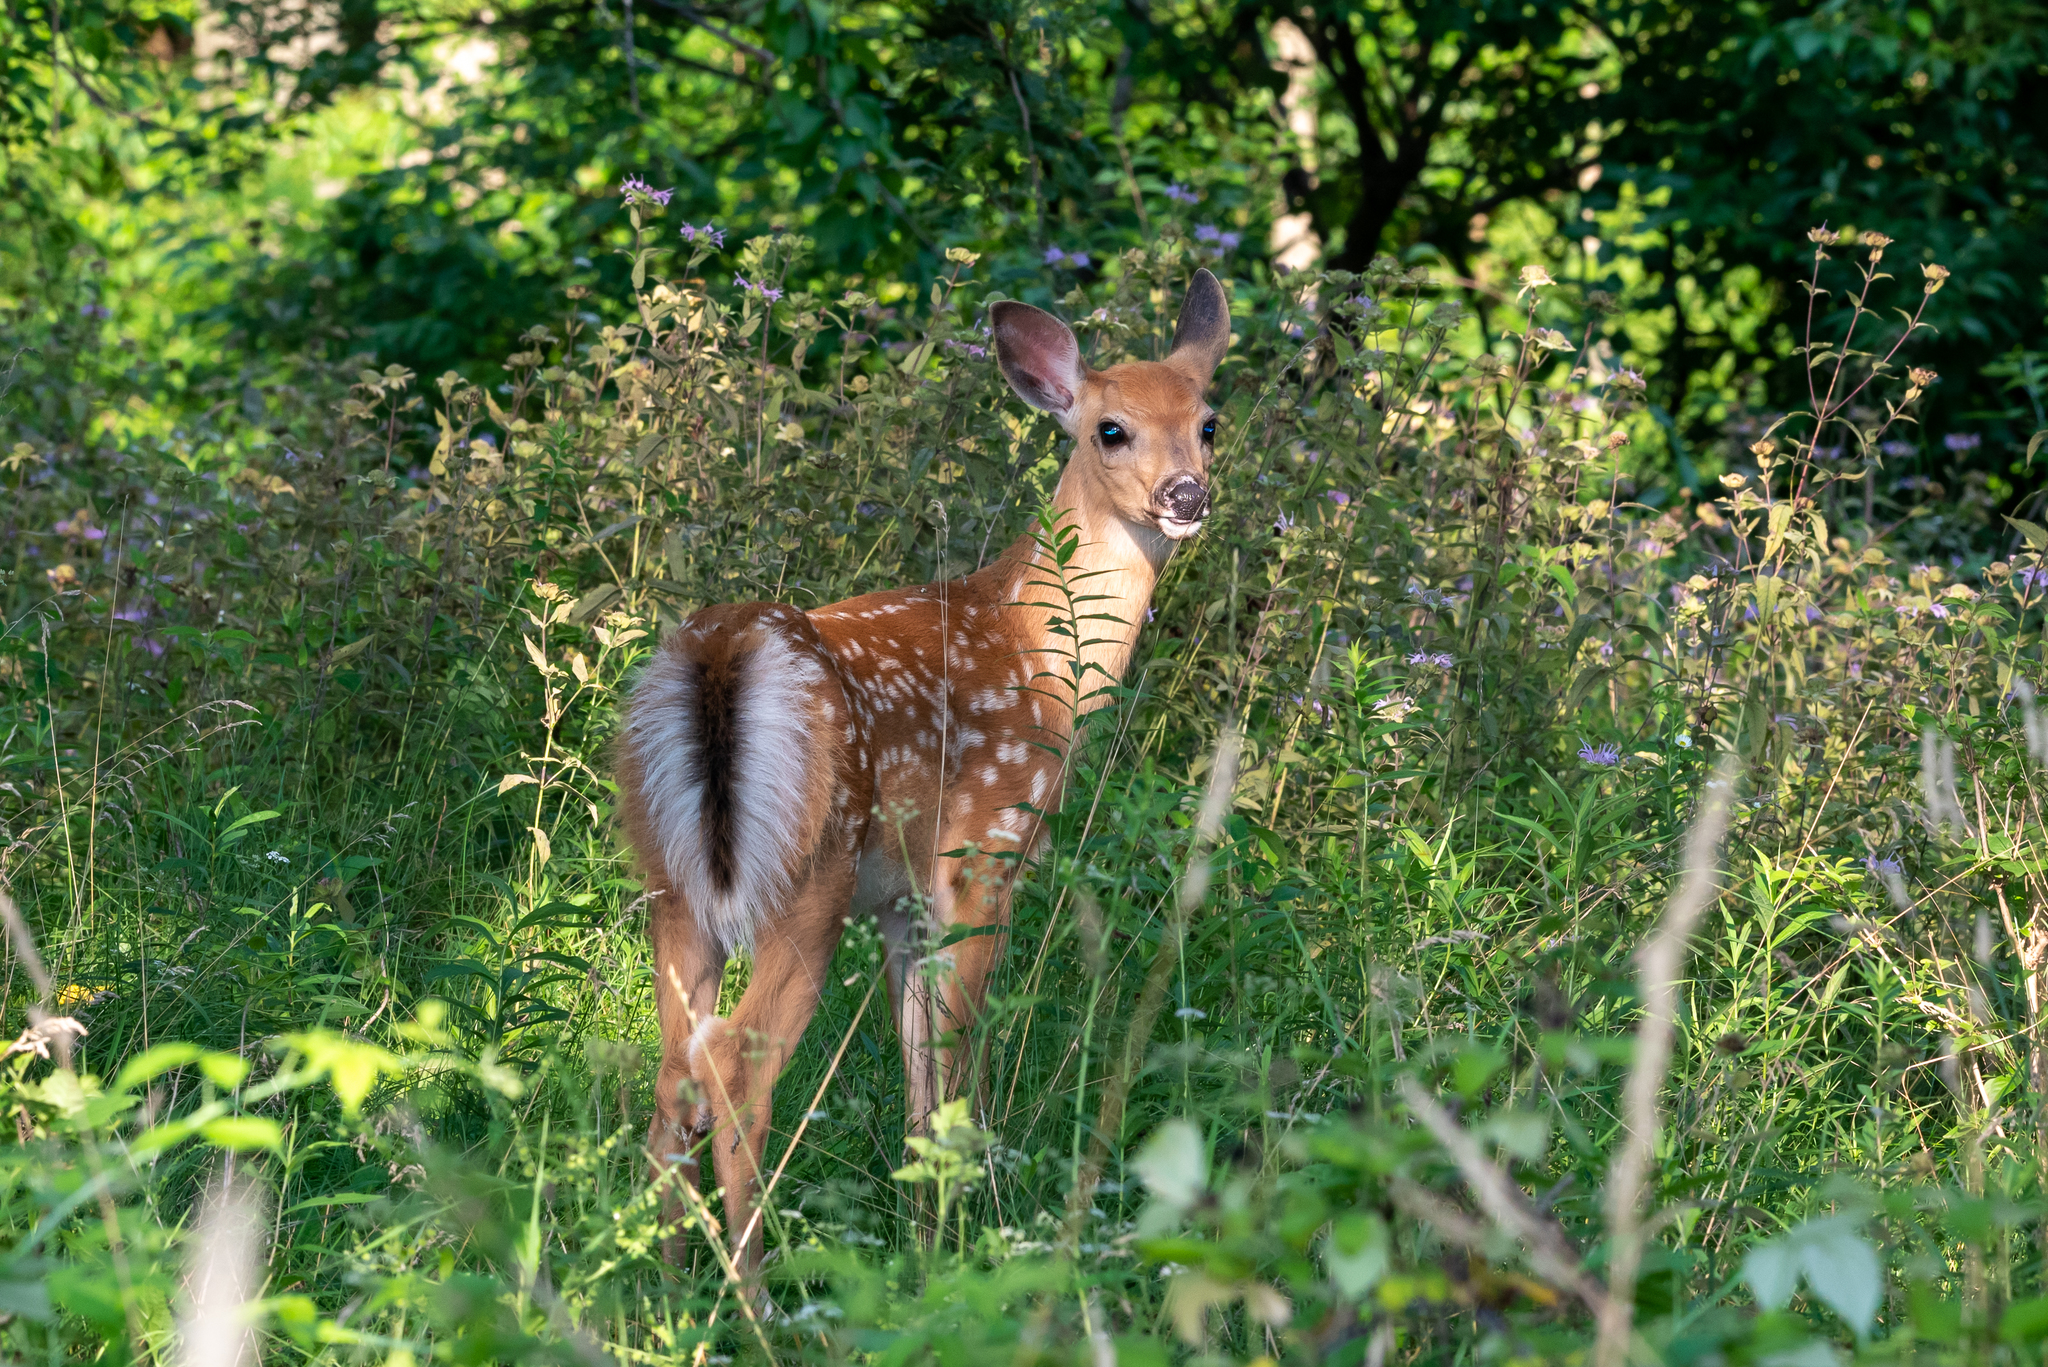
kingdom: Animalia
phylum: Chordata
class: Mammalia
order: Artiodactyla
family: Cervidae
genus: Odocoileus
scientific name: Odocoileus virginianus
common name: White-tailed deer
